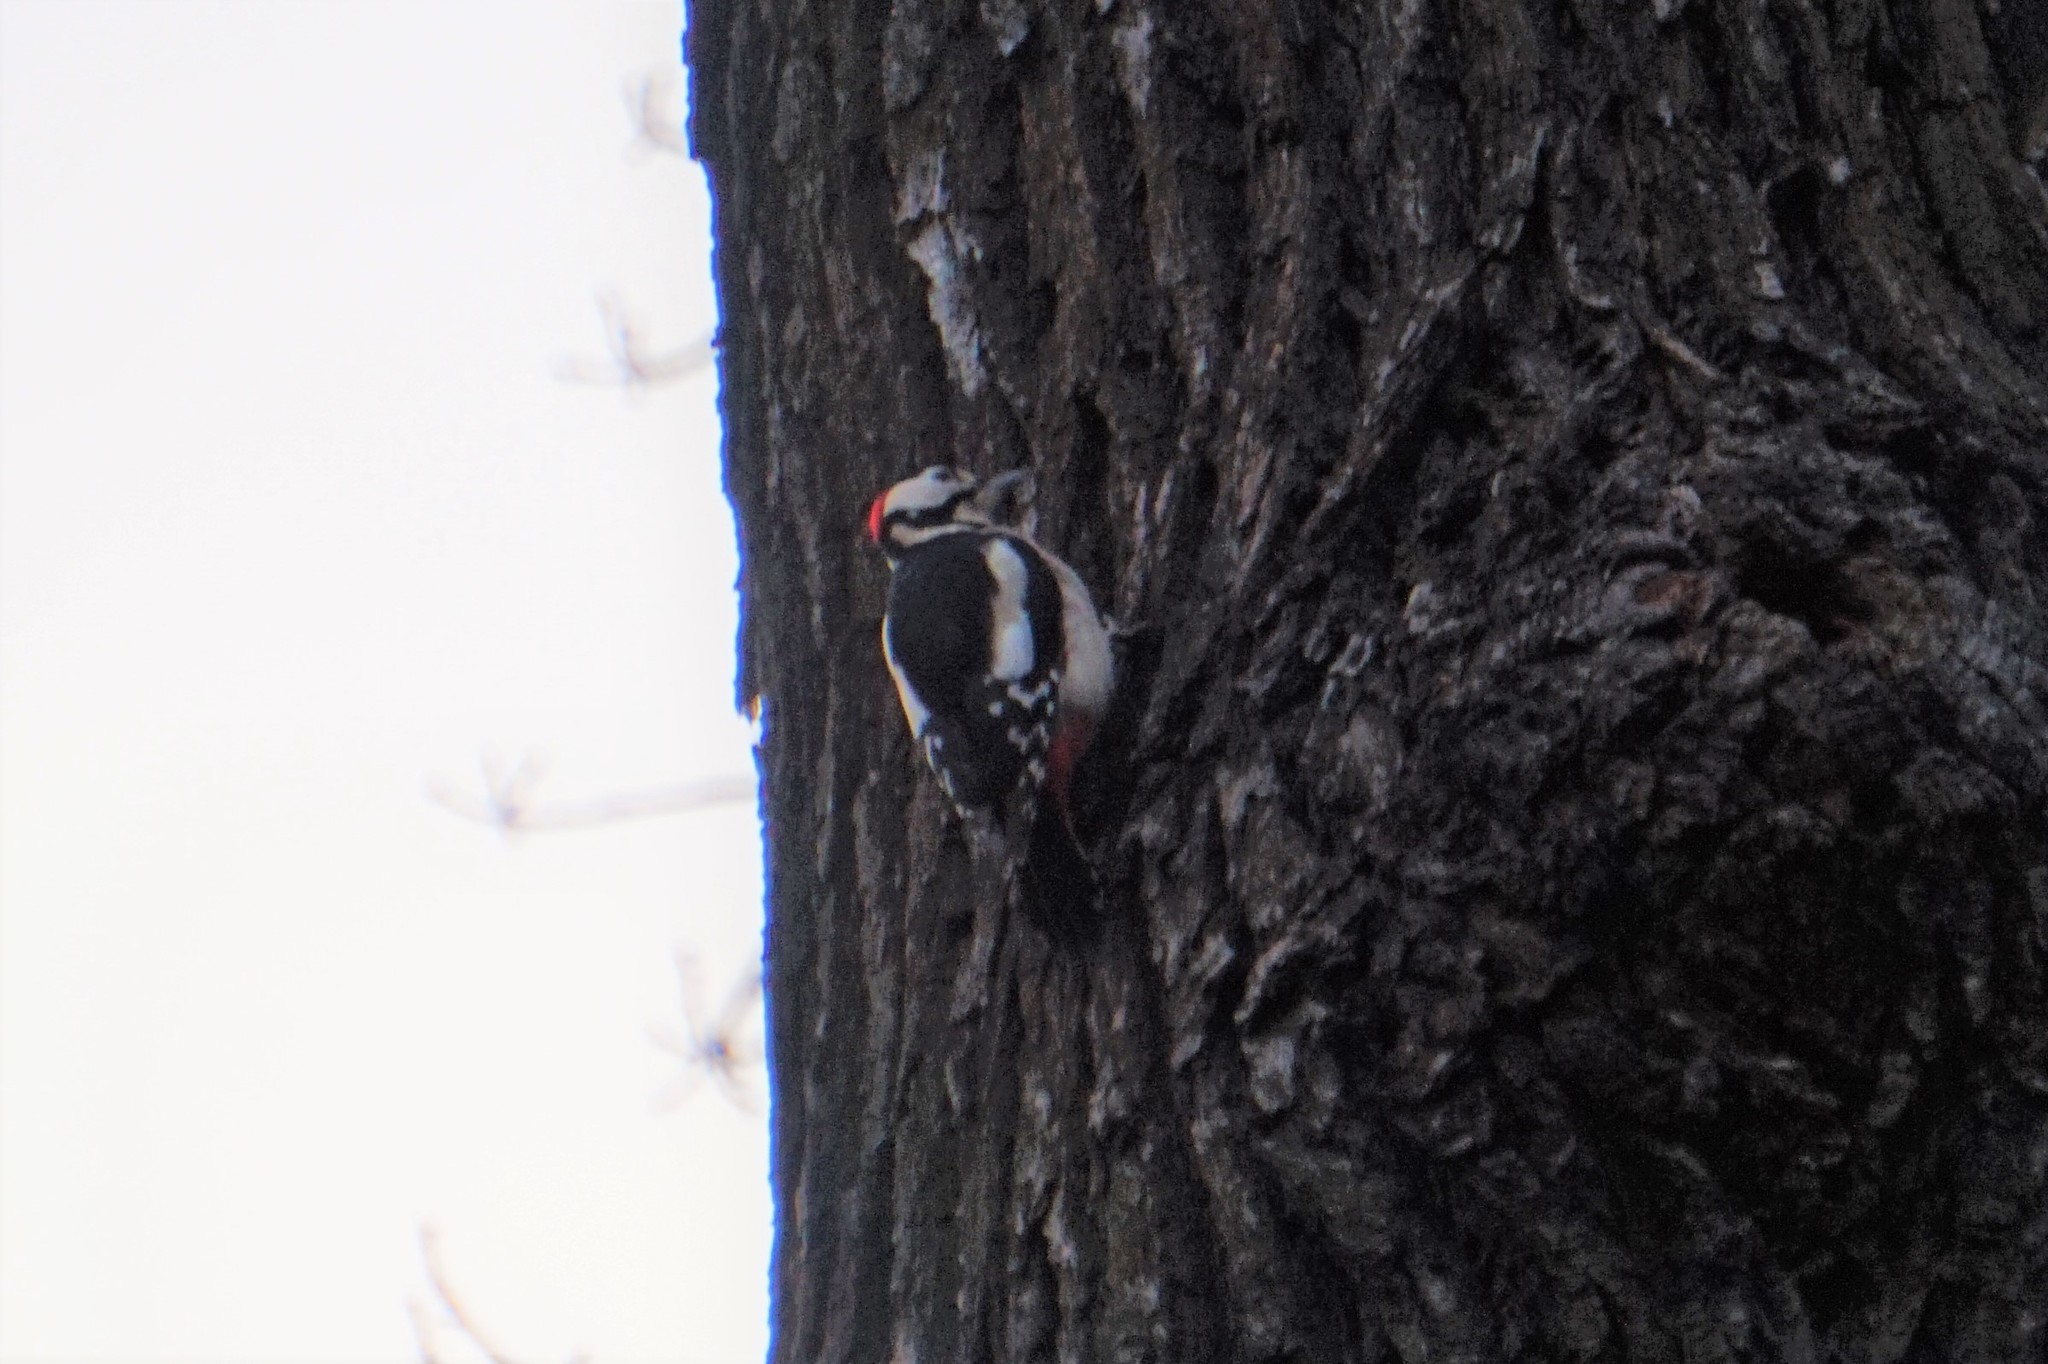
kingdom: Animalia
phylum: Chordata
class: Aves
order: Piciformes
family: Picidae
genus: Dendrocopos
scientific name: Dendrocopos major
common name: Great spotted woodpecker
